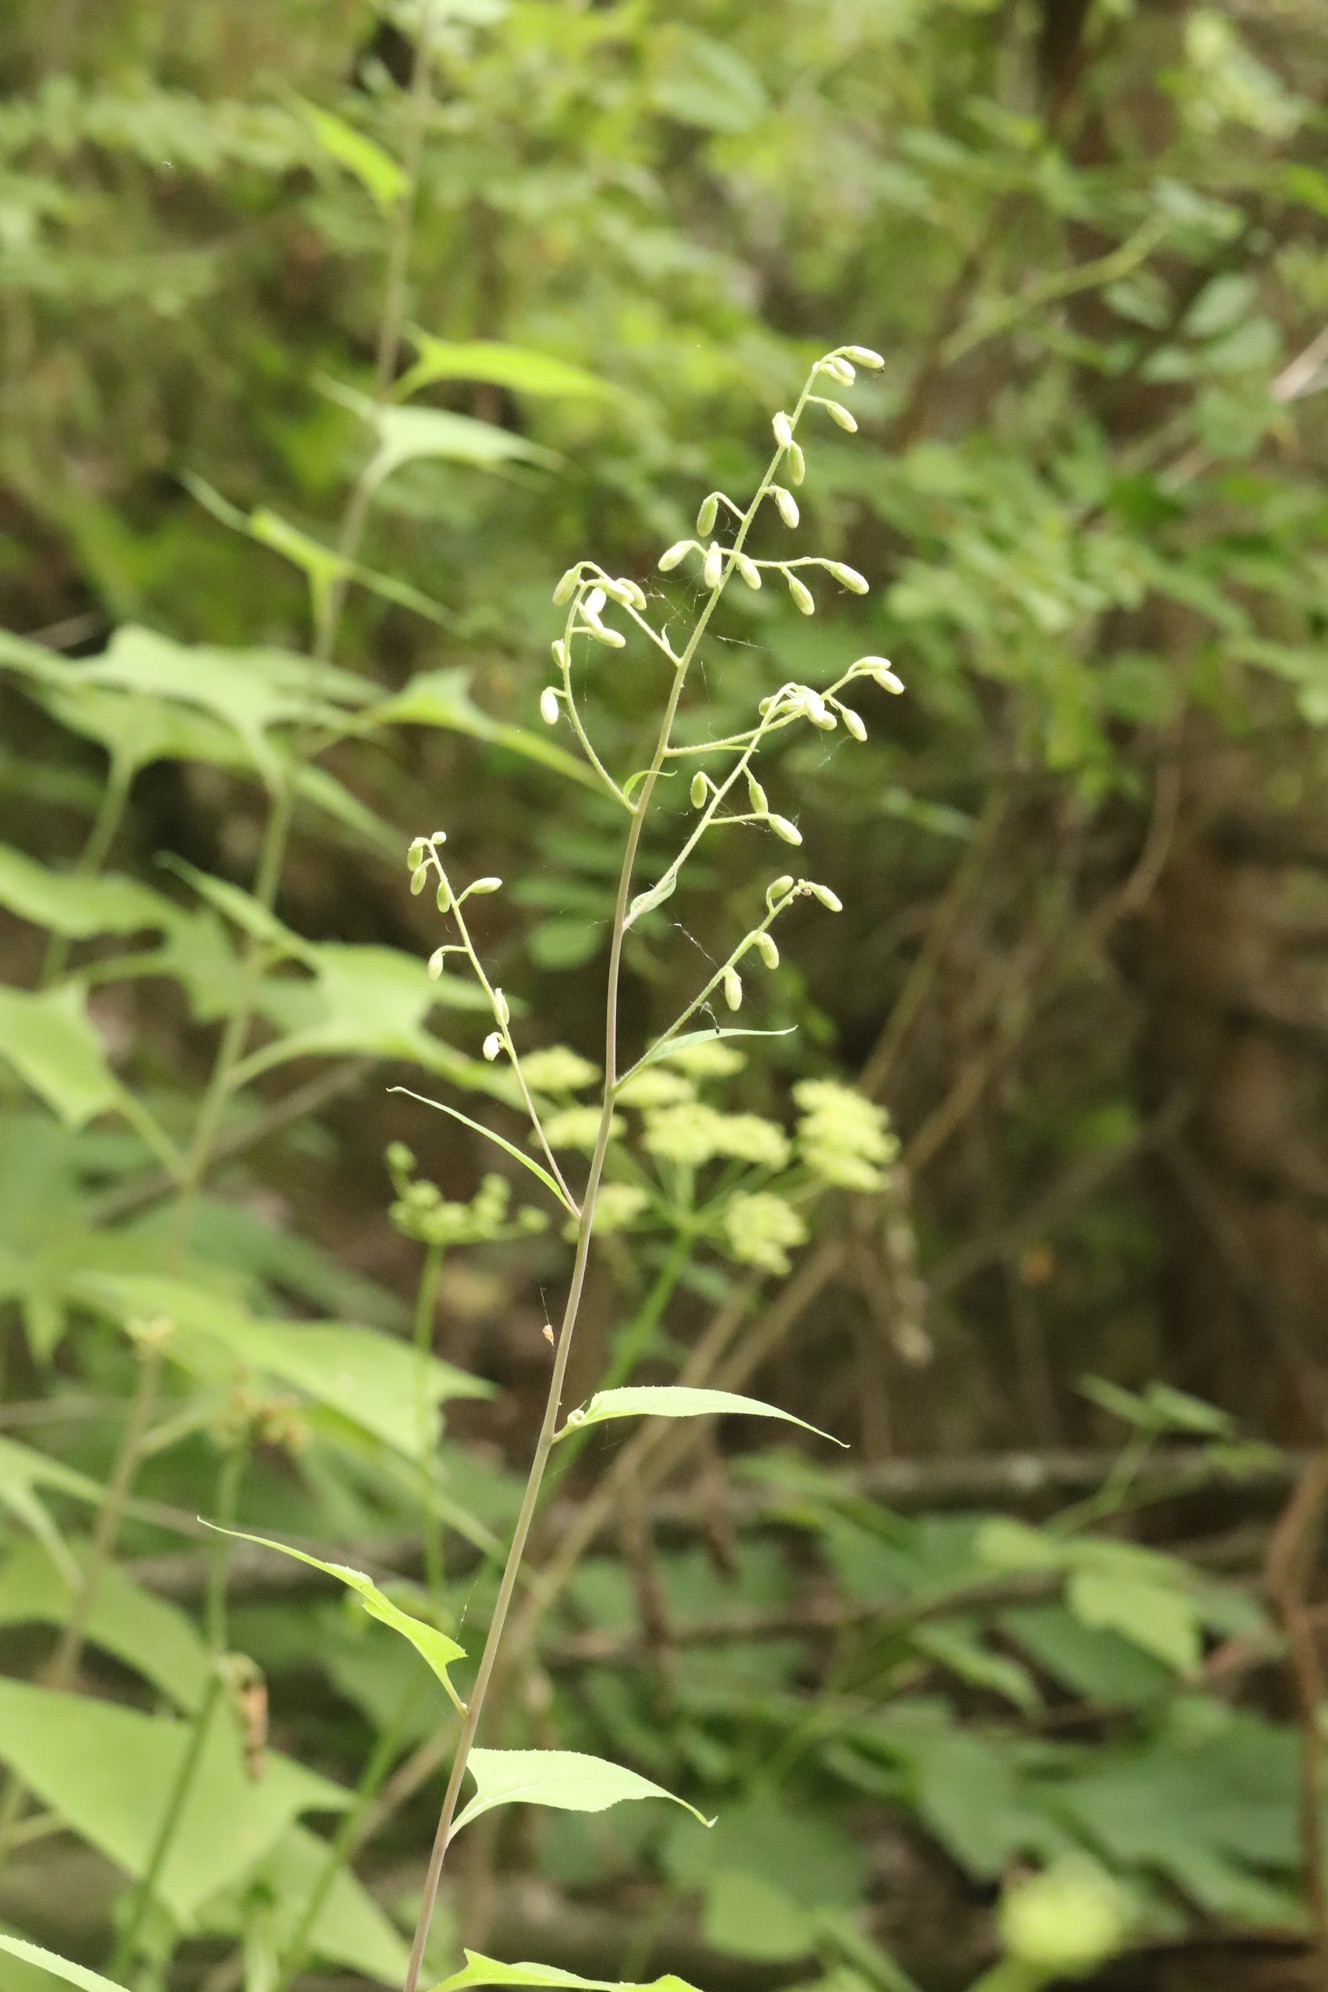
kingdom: Plantae
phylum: Tracheophyta
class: Magnoliopsida
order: Asterales
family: Asteraceae
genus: Parasenecio
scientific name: Parasenecio hastatus
